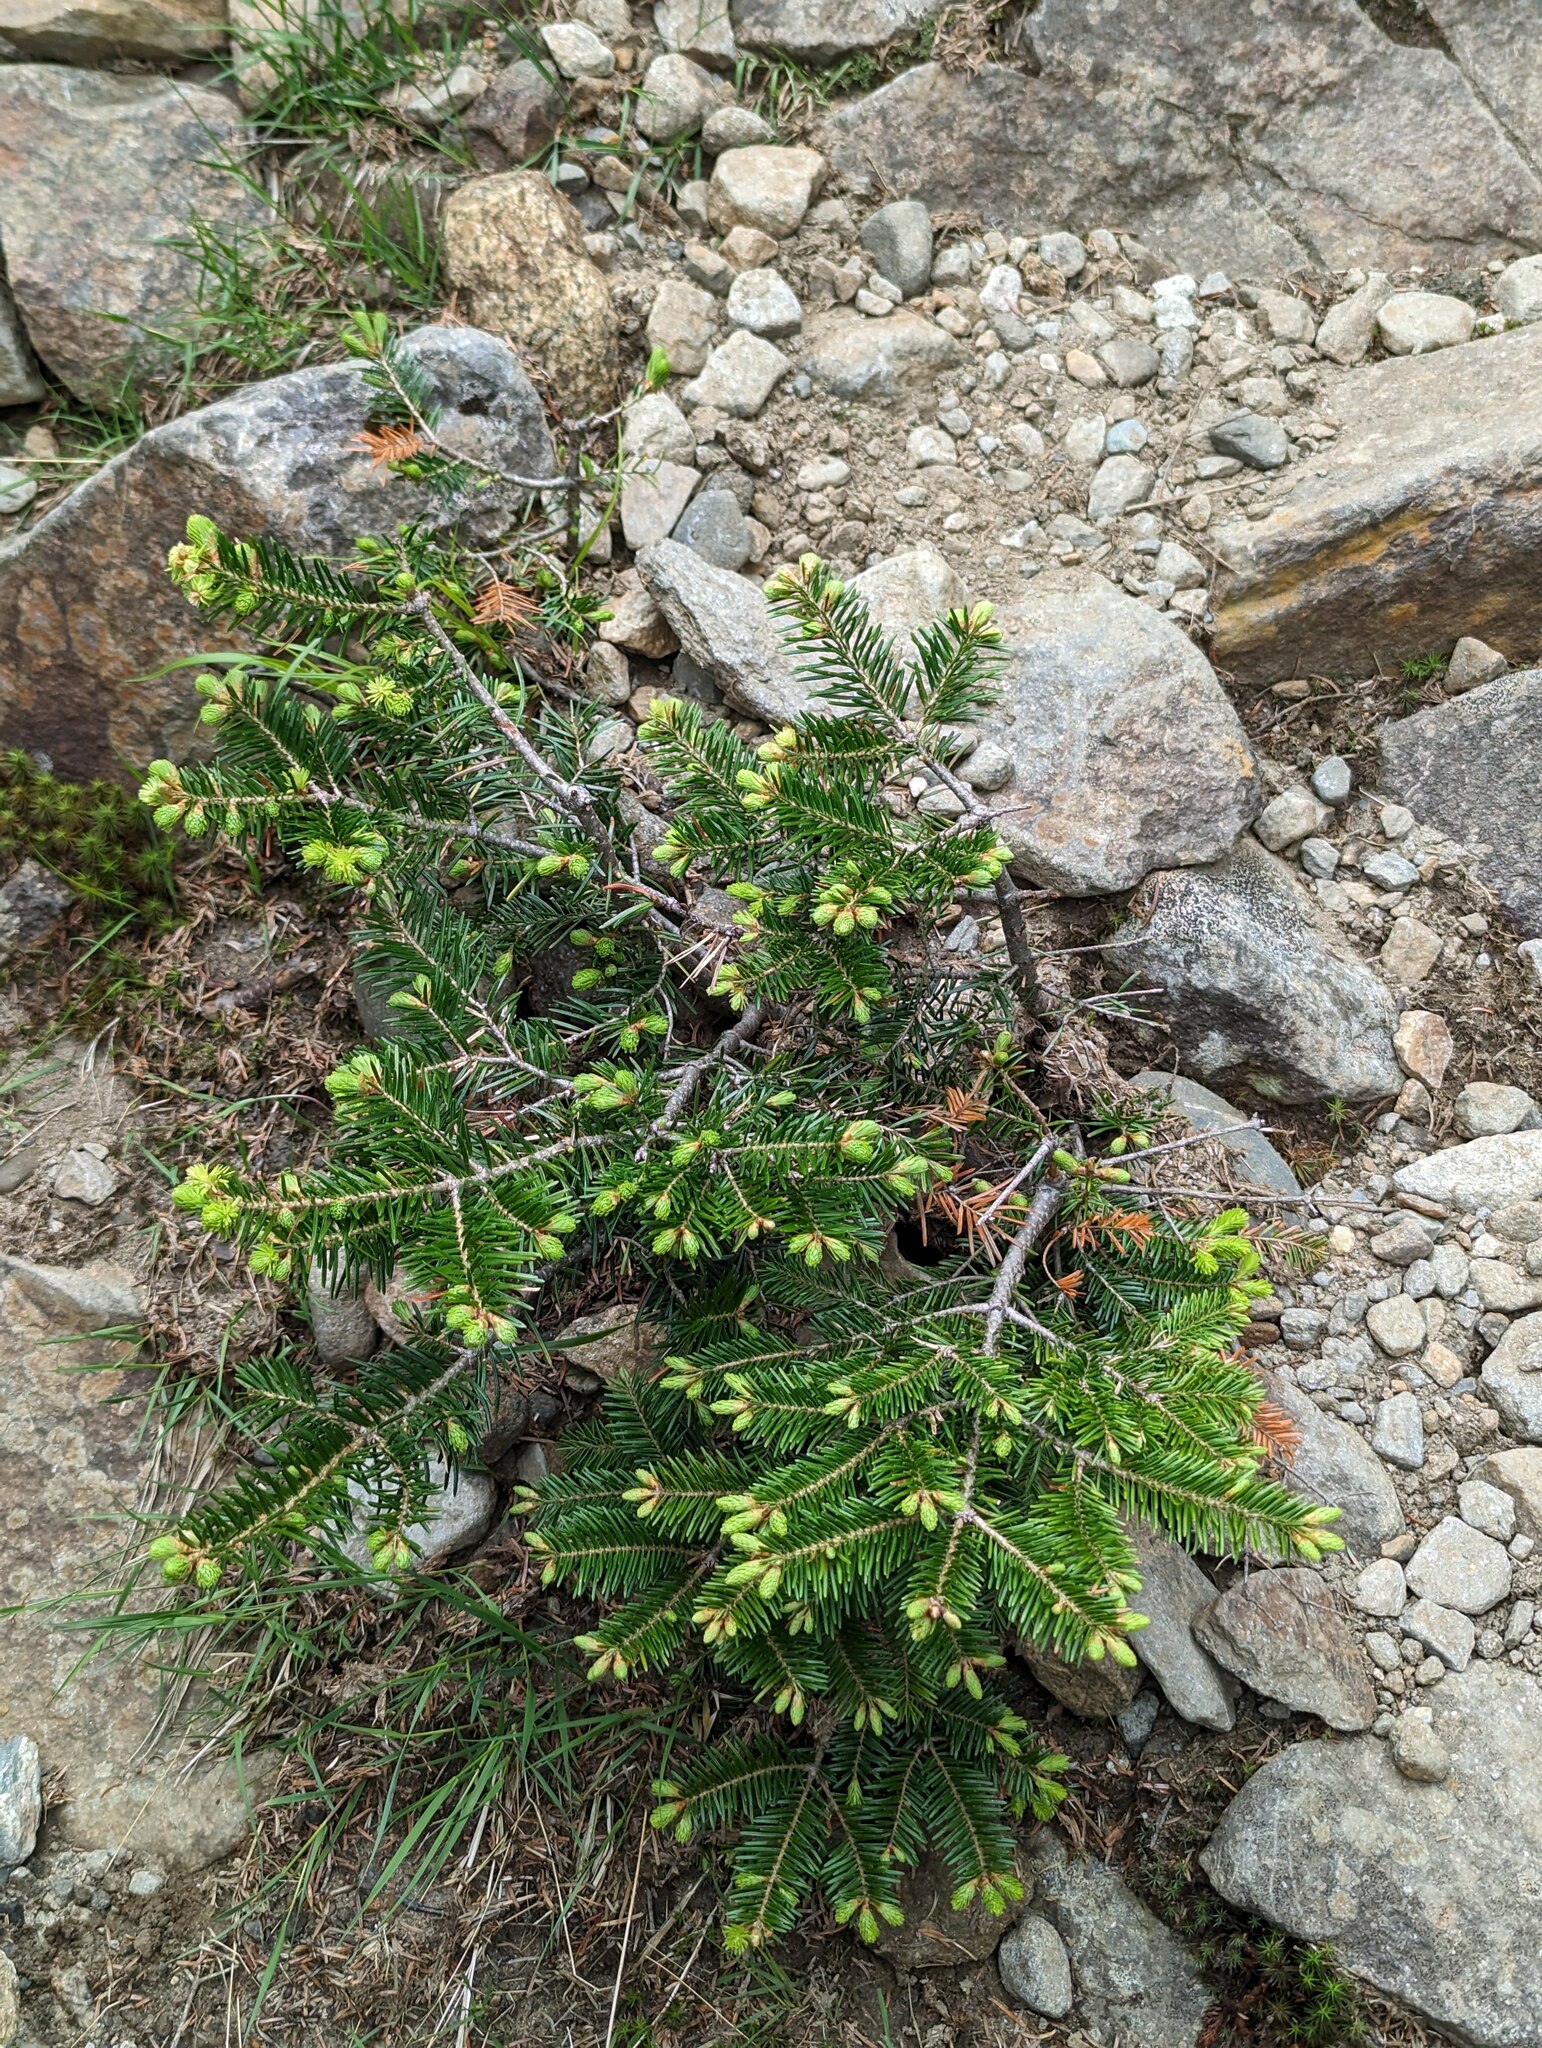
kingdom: Plantae
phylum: Tracheophyta
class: Pinopsida
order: Pinales
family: Pinaceae
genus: Abies
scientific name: Abies balsamea
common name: Balsam fir
